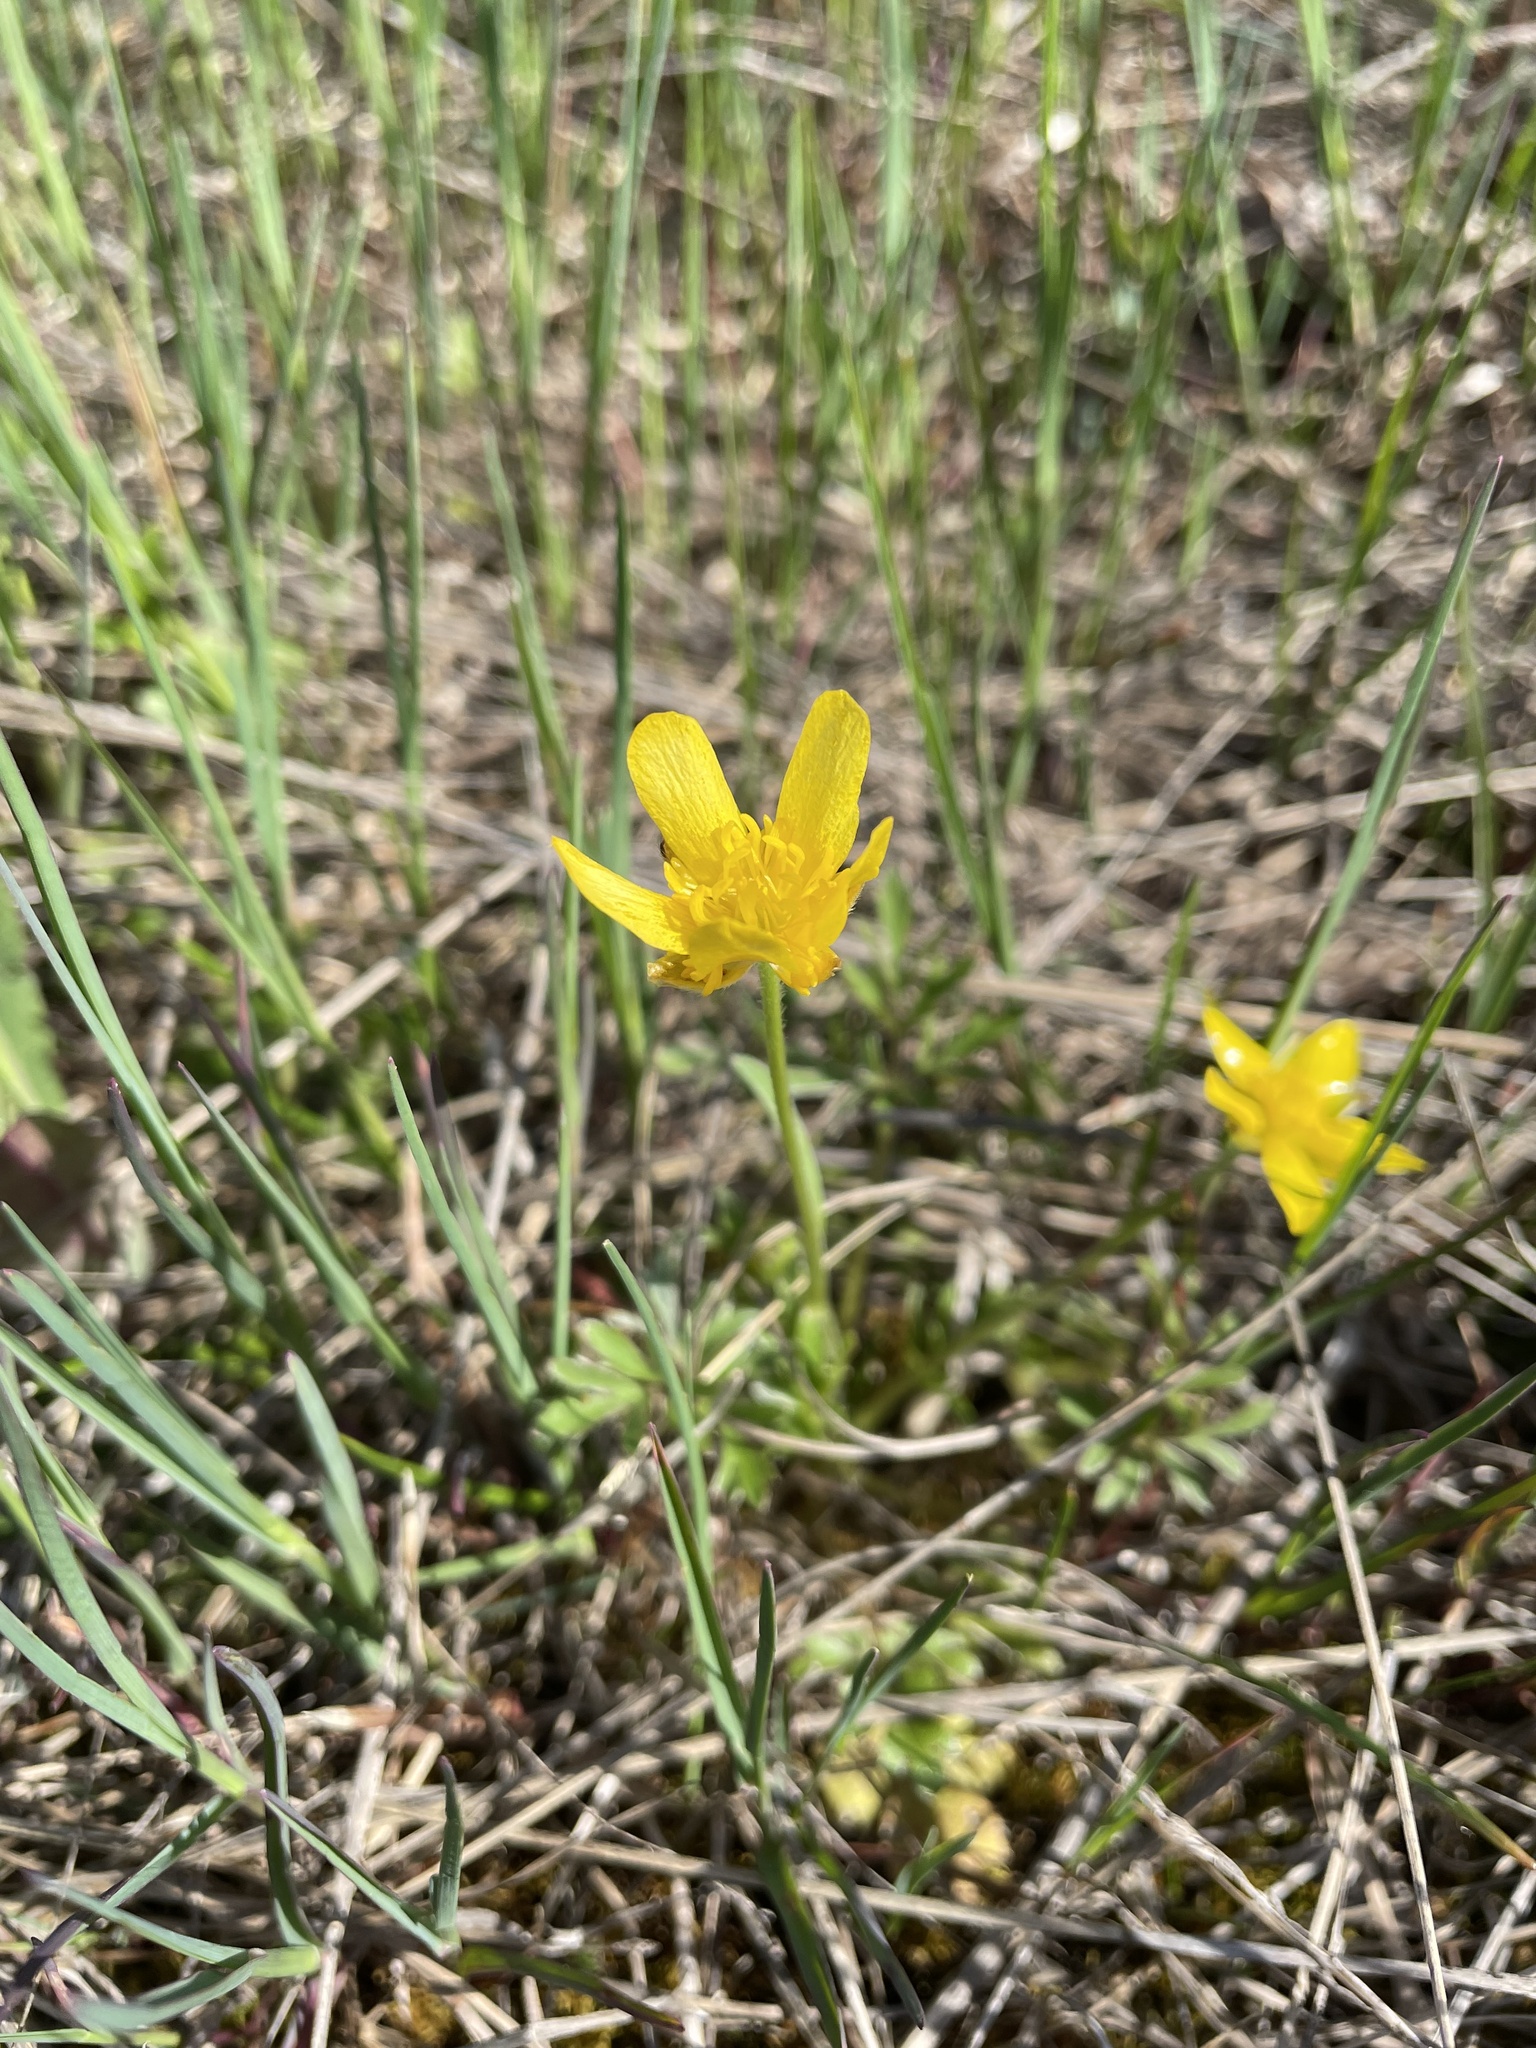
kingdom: Plantae
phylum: Tracheophyta
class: Magnoliopsida
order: Ranunculales
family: Ranunculaceae
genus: Ranunculus
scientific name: Ranunculus fascicularis
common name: Early buttercup
